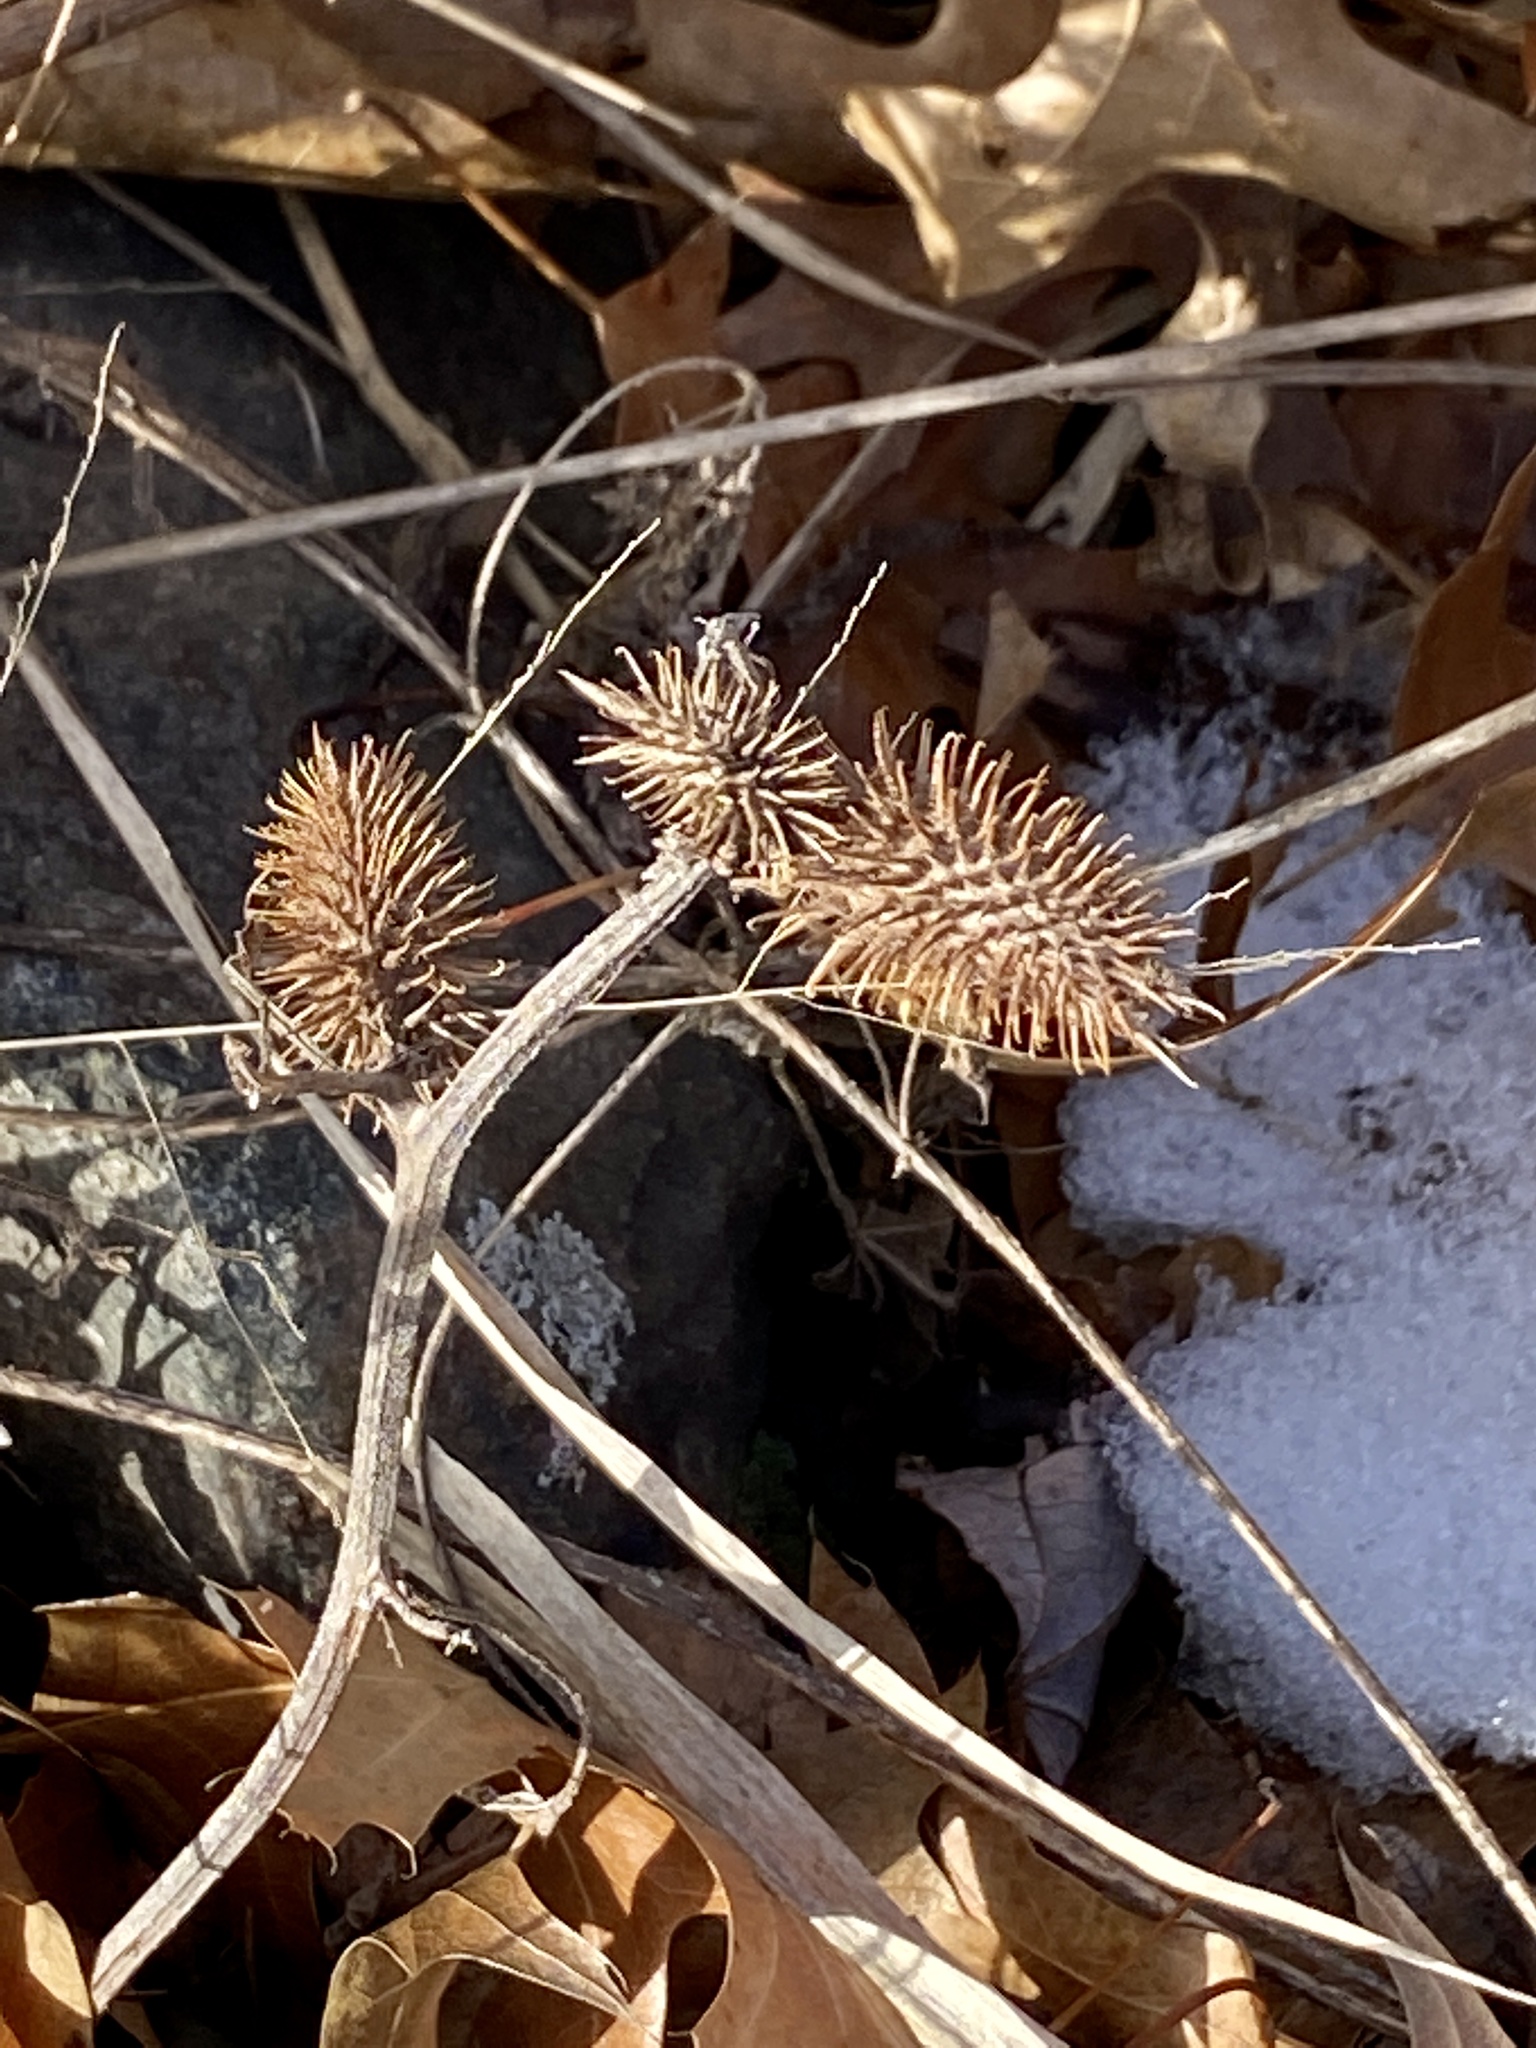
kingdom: Plantae
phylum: Tracheophyta
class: Magnoliopsida
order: Asterales
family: Asteraceae
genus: Xanthium
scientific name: Xanthium strumarium
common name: Rough cocklebur
